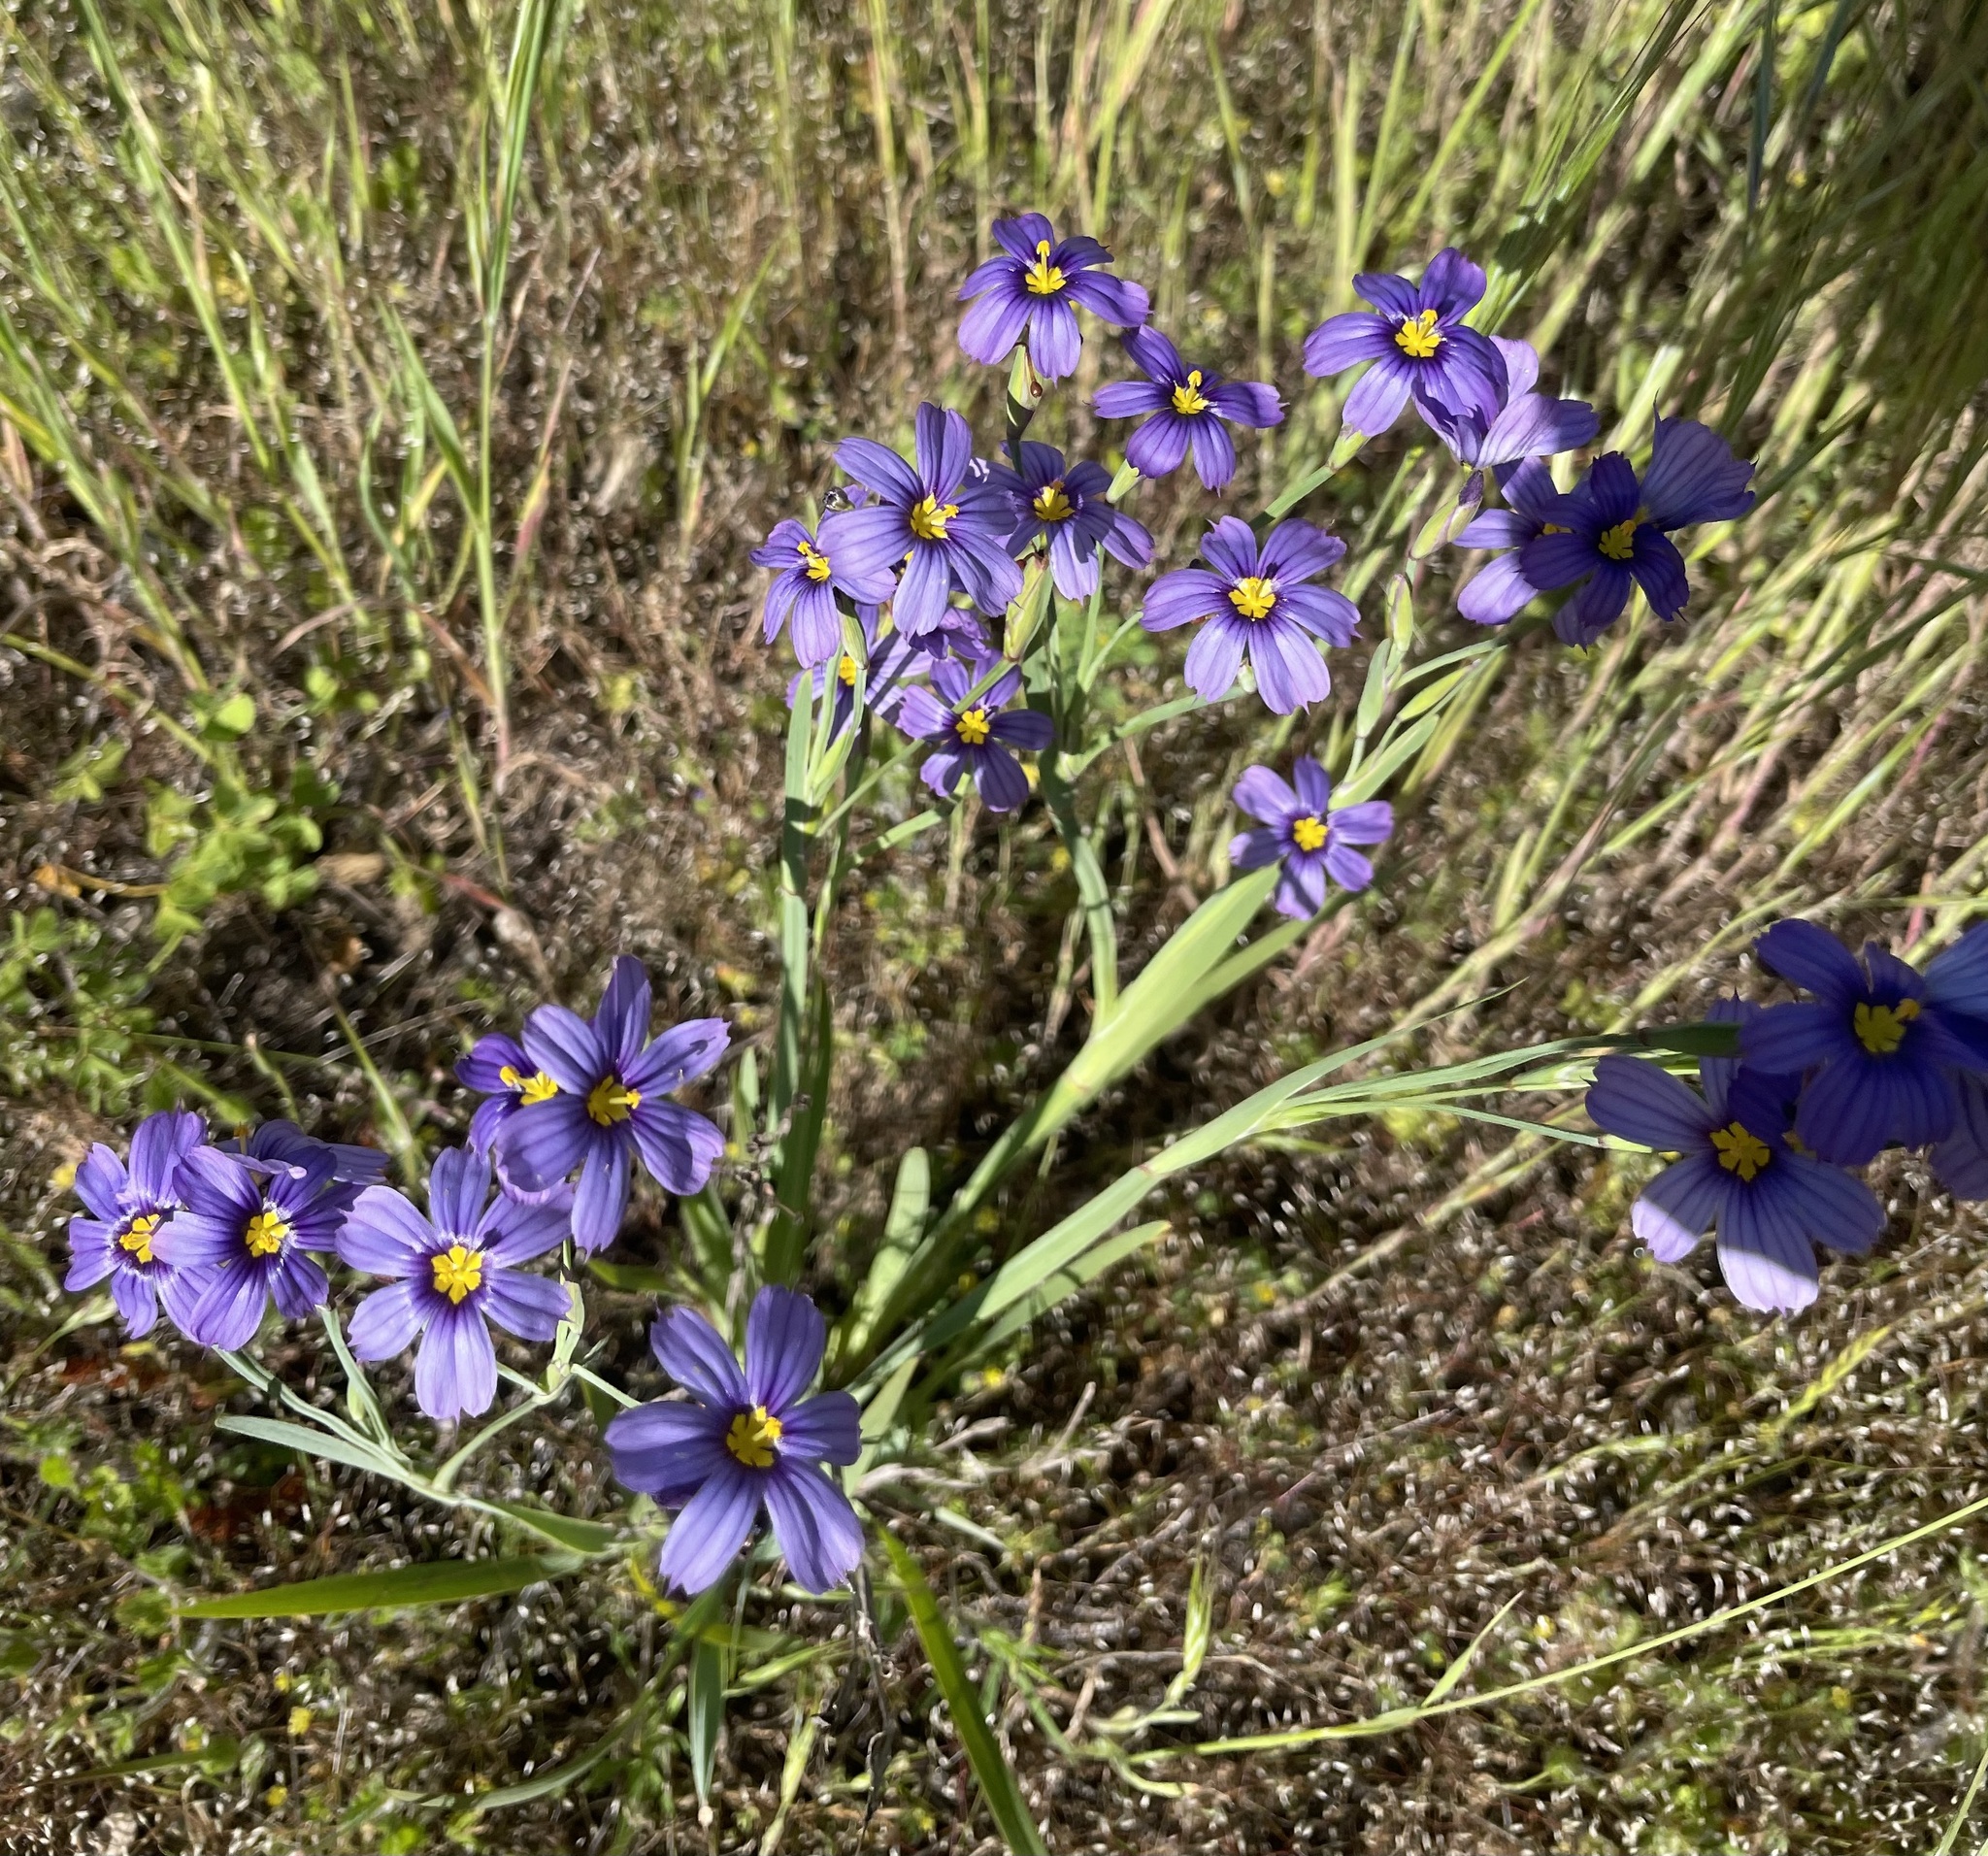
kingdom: Plantae
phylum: Tracheophyta
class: Liliopsida
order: Asparagales
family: Iridaceae
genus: Sisyrinchium
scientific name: Sisyrinchium bellum
